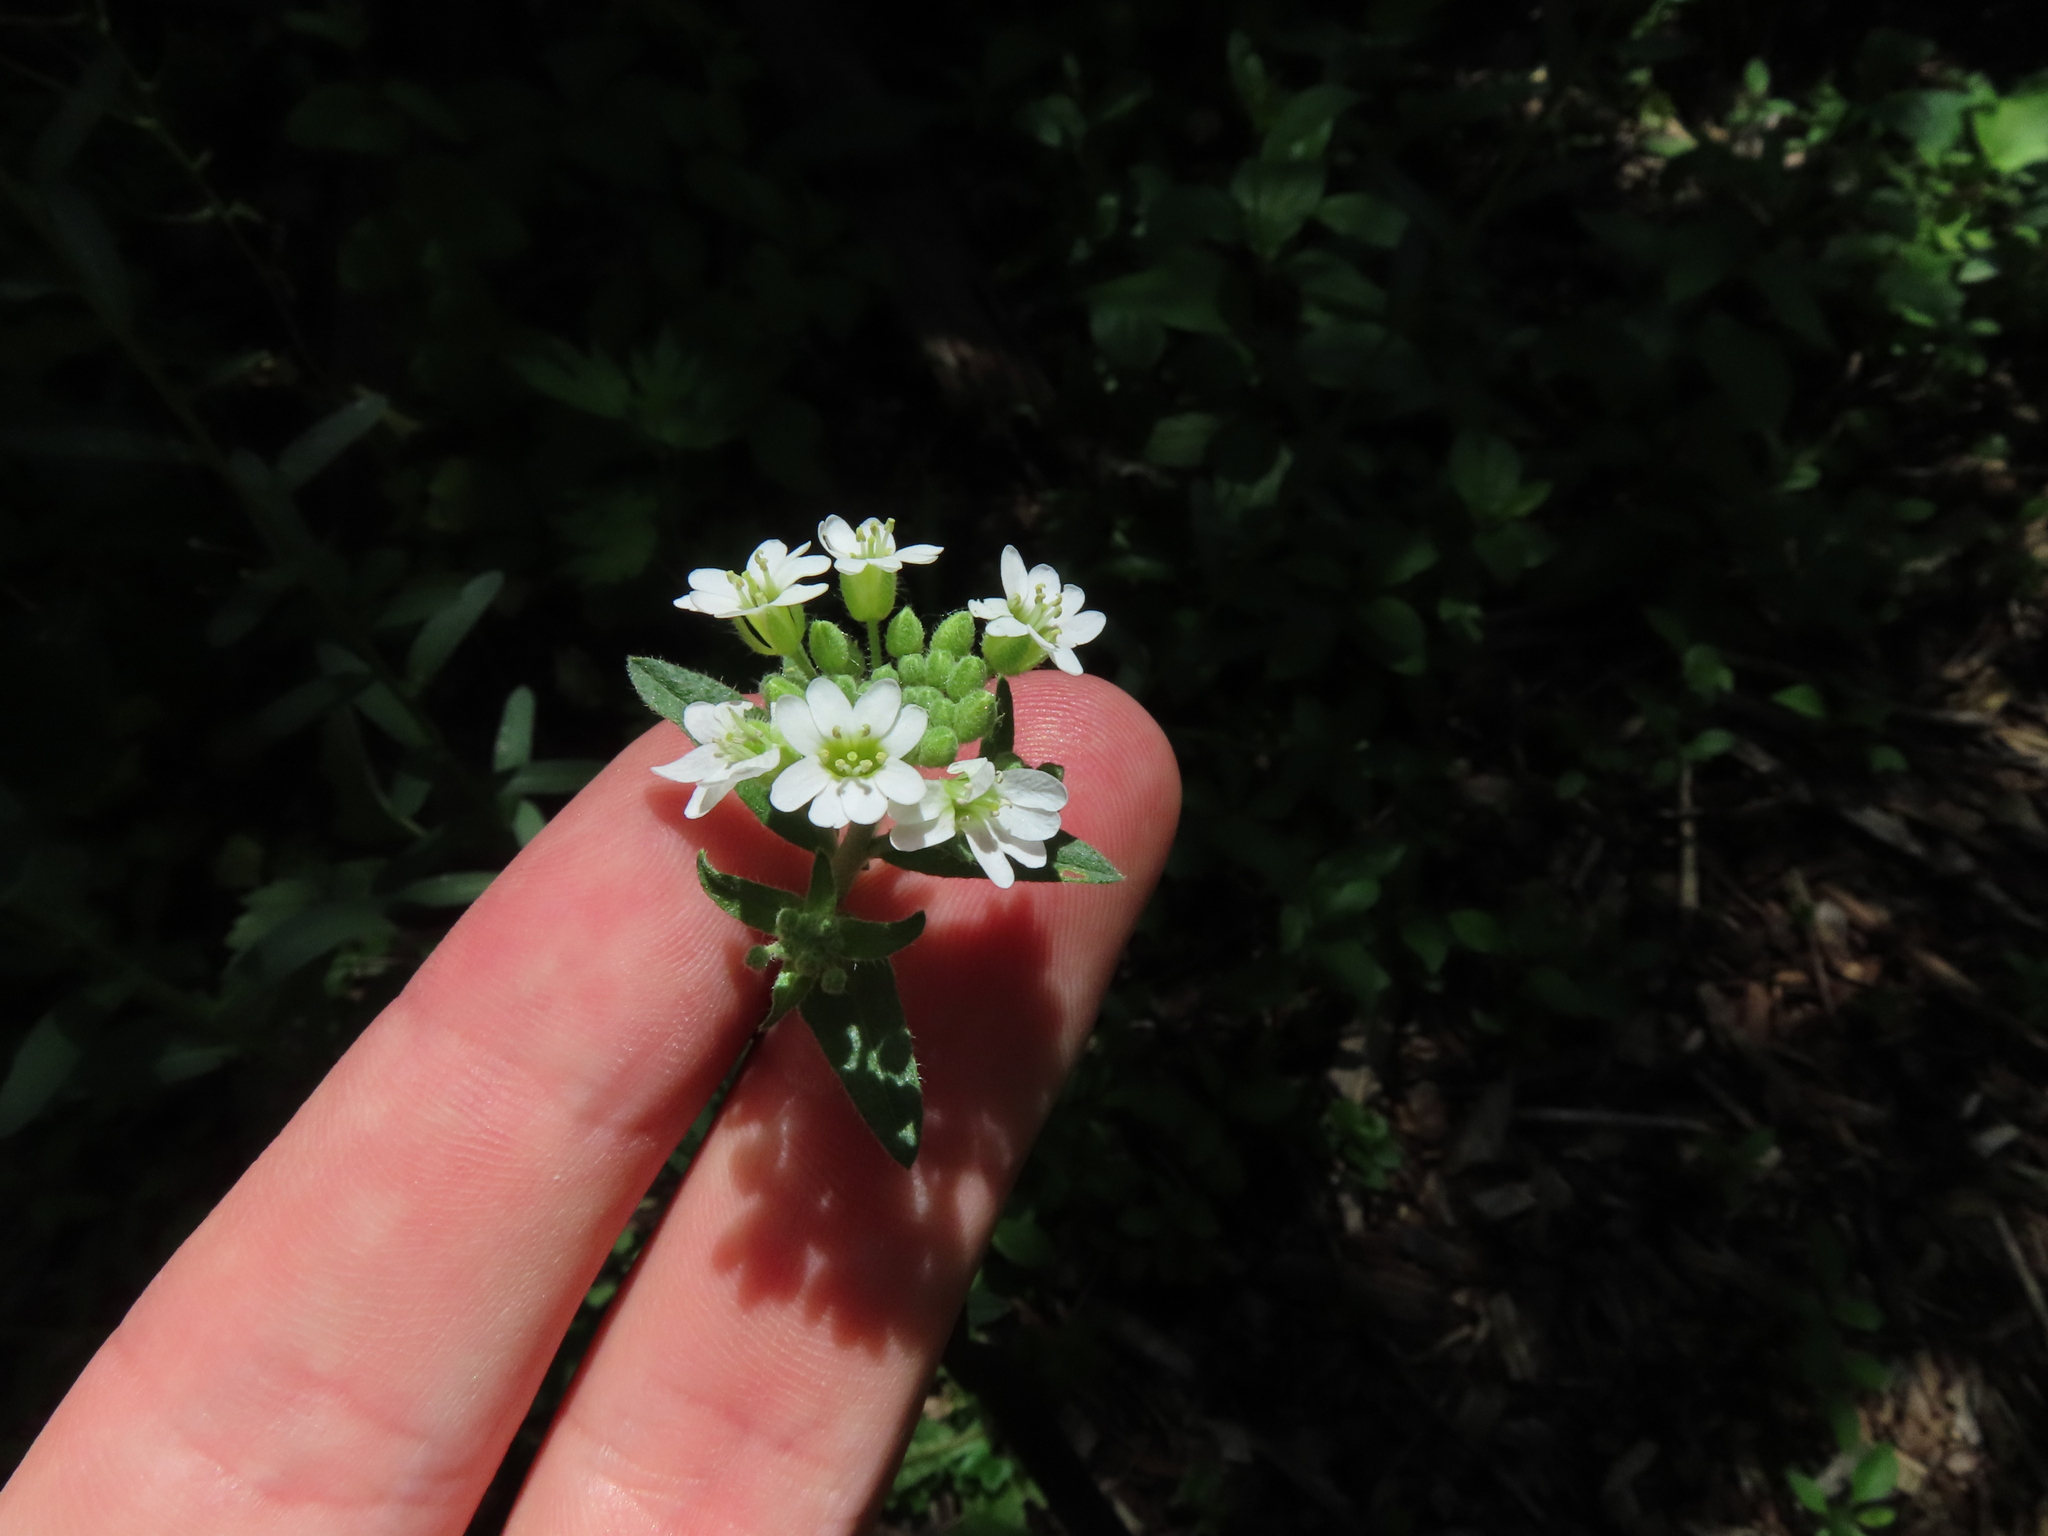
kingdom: Plantae
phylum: Tracheophyta
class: Magnoliopsida
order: Brassicales
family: Brassicaceae
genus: Berteroa
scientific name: Berteroa incana
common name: Hoary alison
